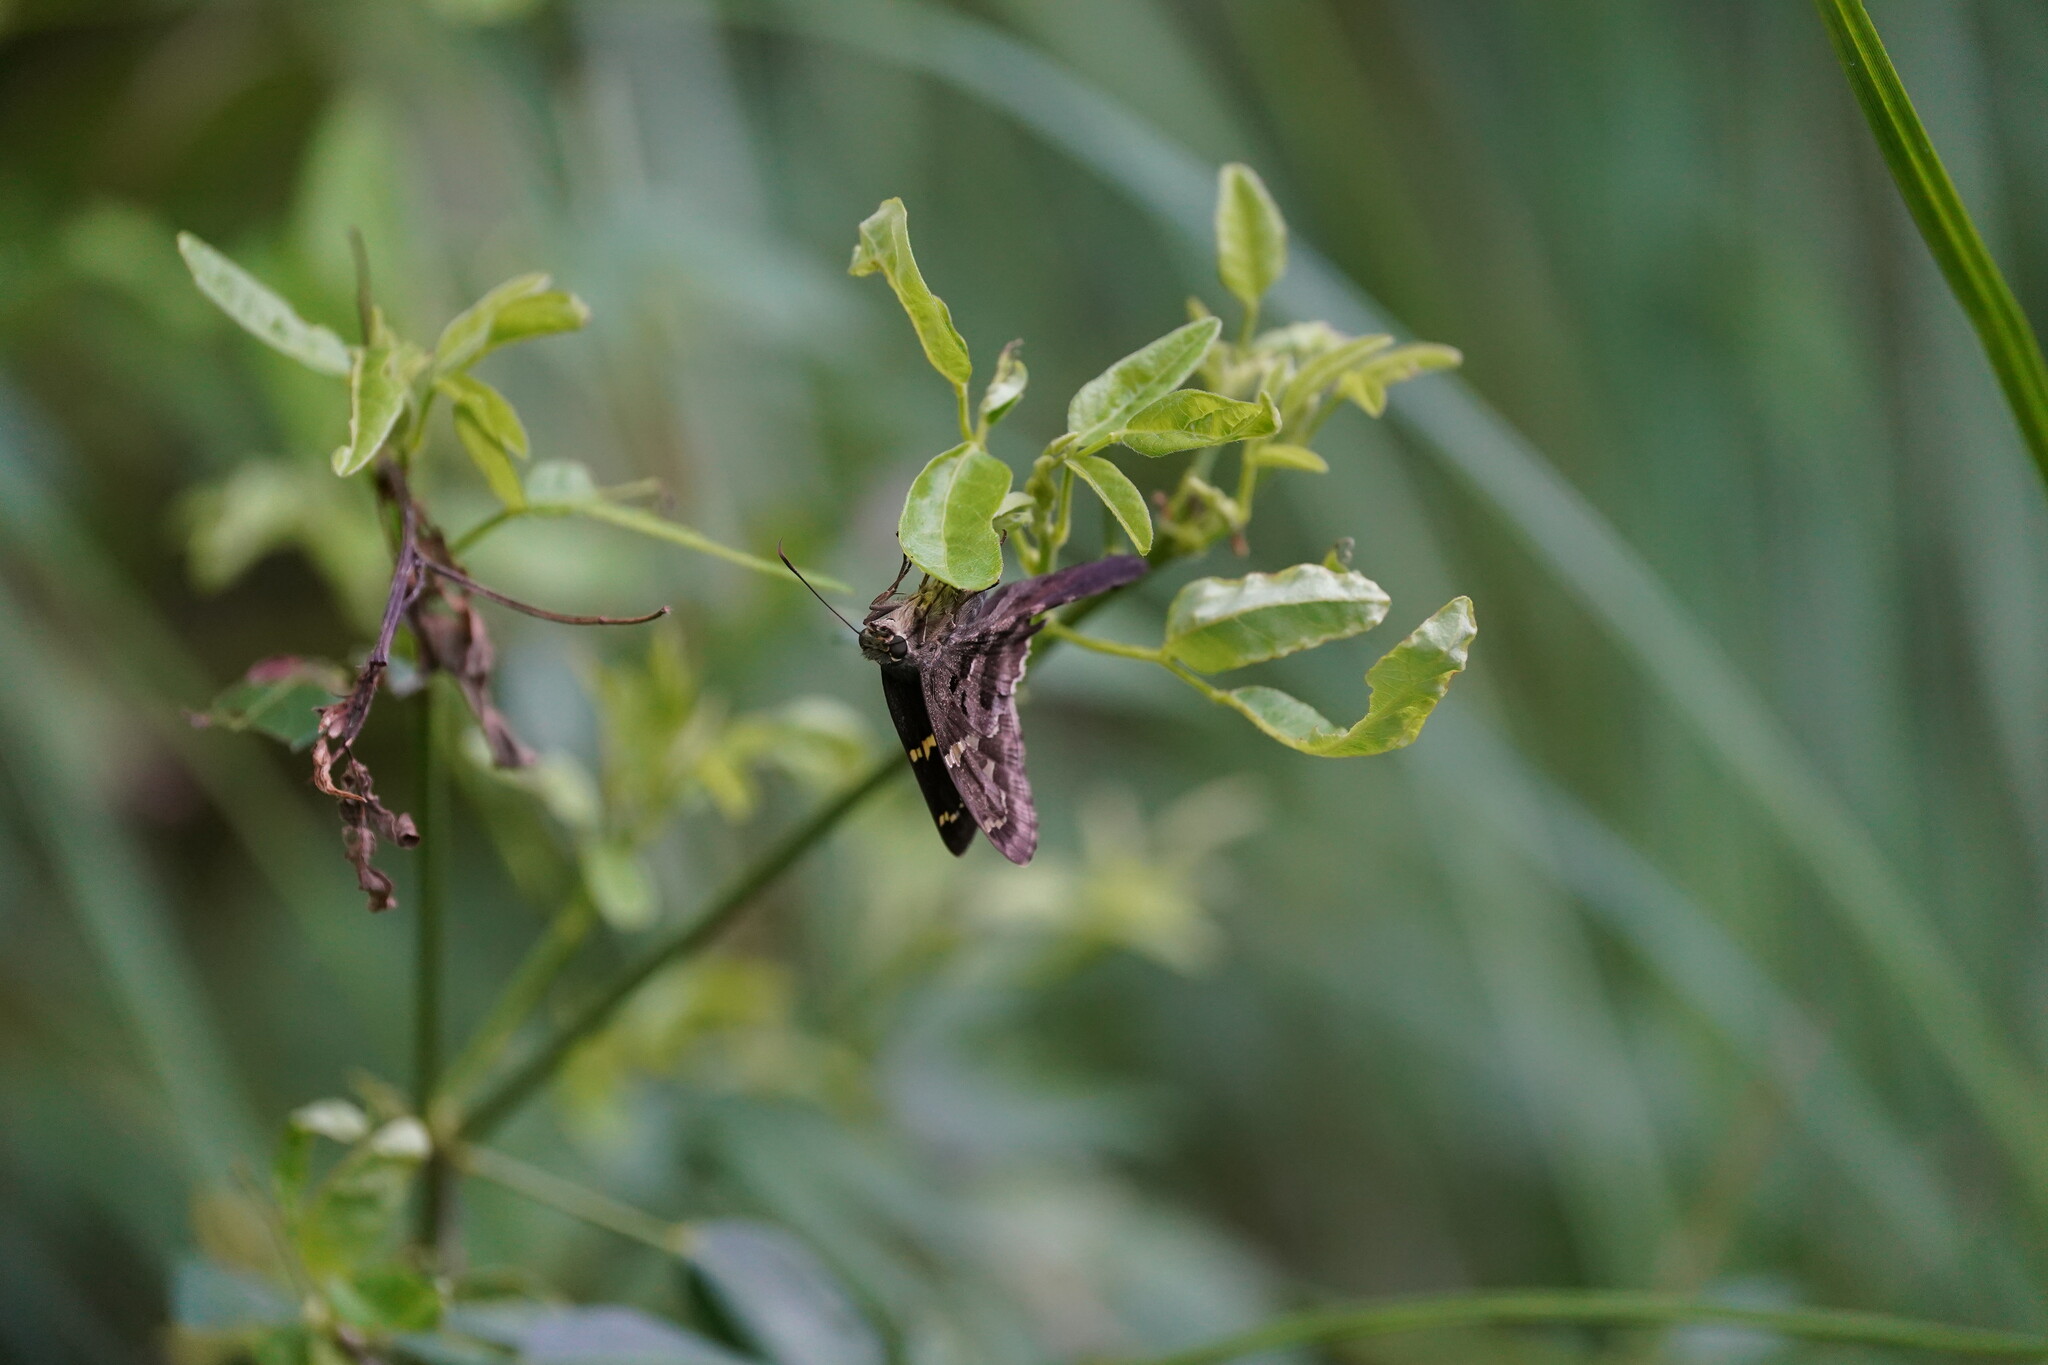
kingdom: Animalia
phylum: Arthropoda
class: Insecta
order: Lepidoptera
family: Hesperiidae
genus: Urbanus
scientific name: Urbanus proteus
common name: Long-tailed skipper
